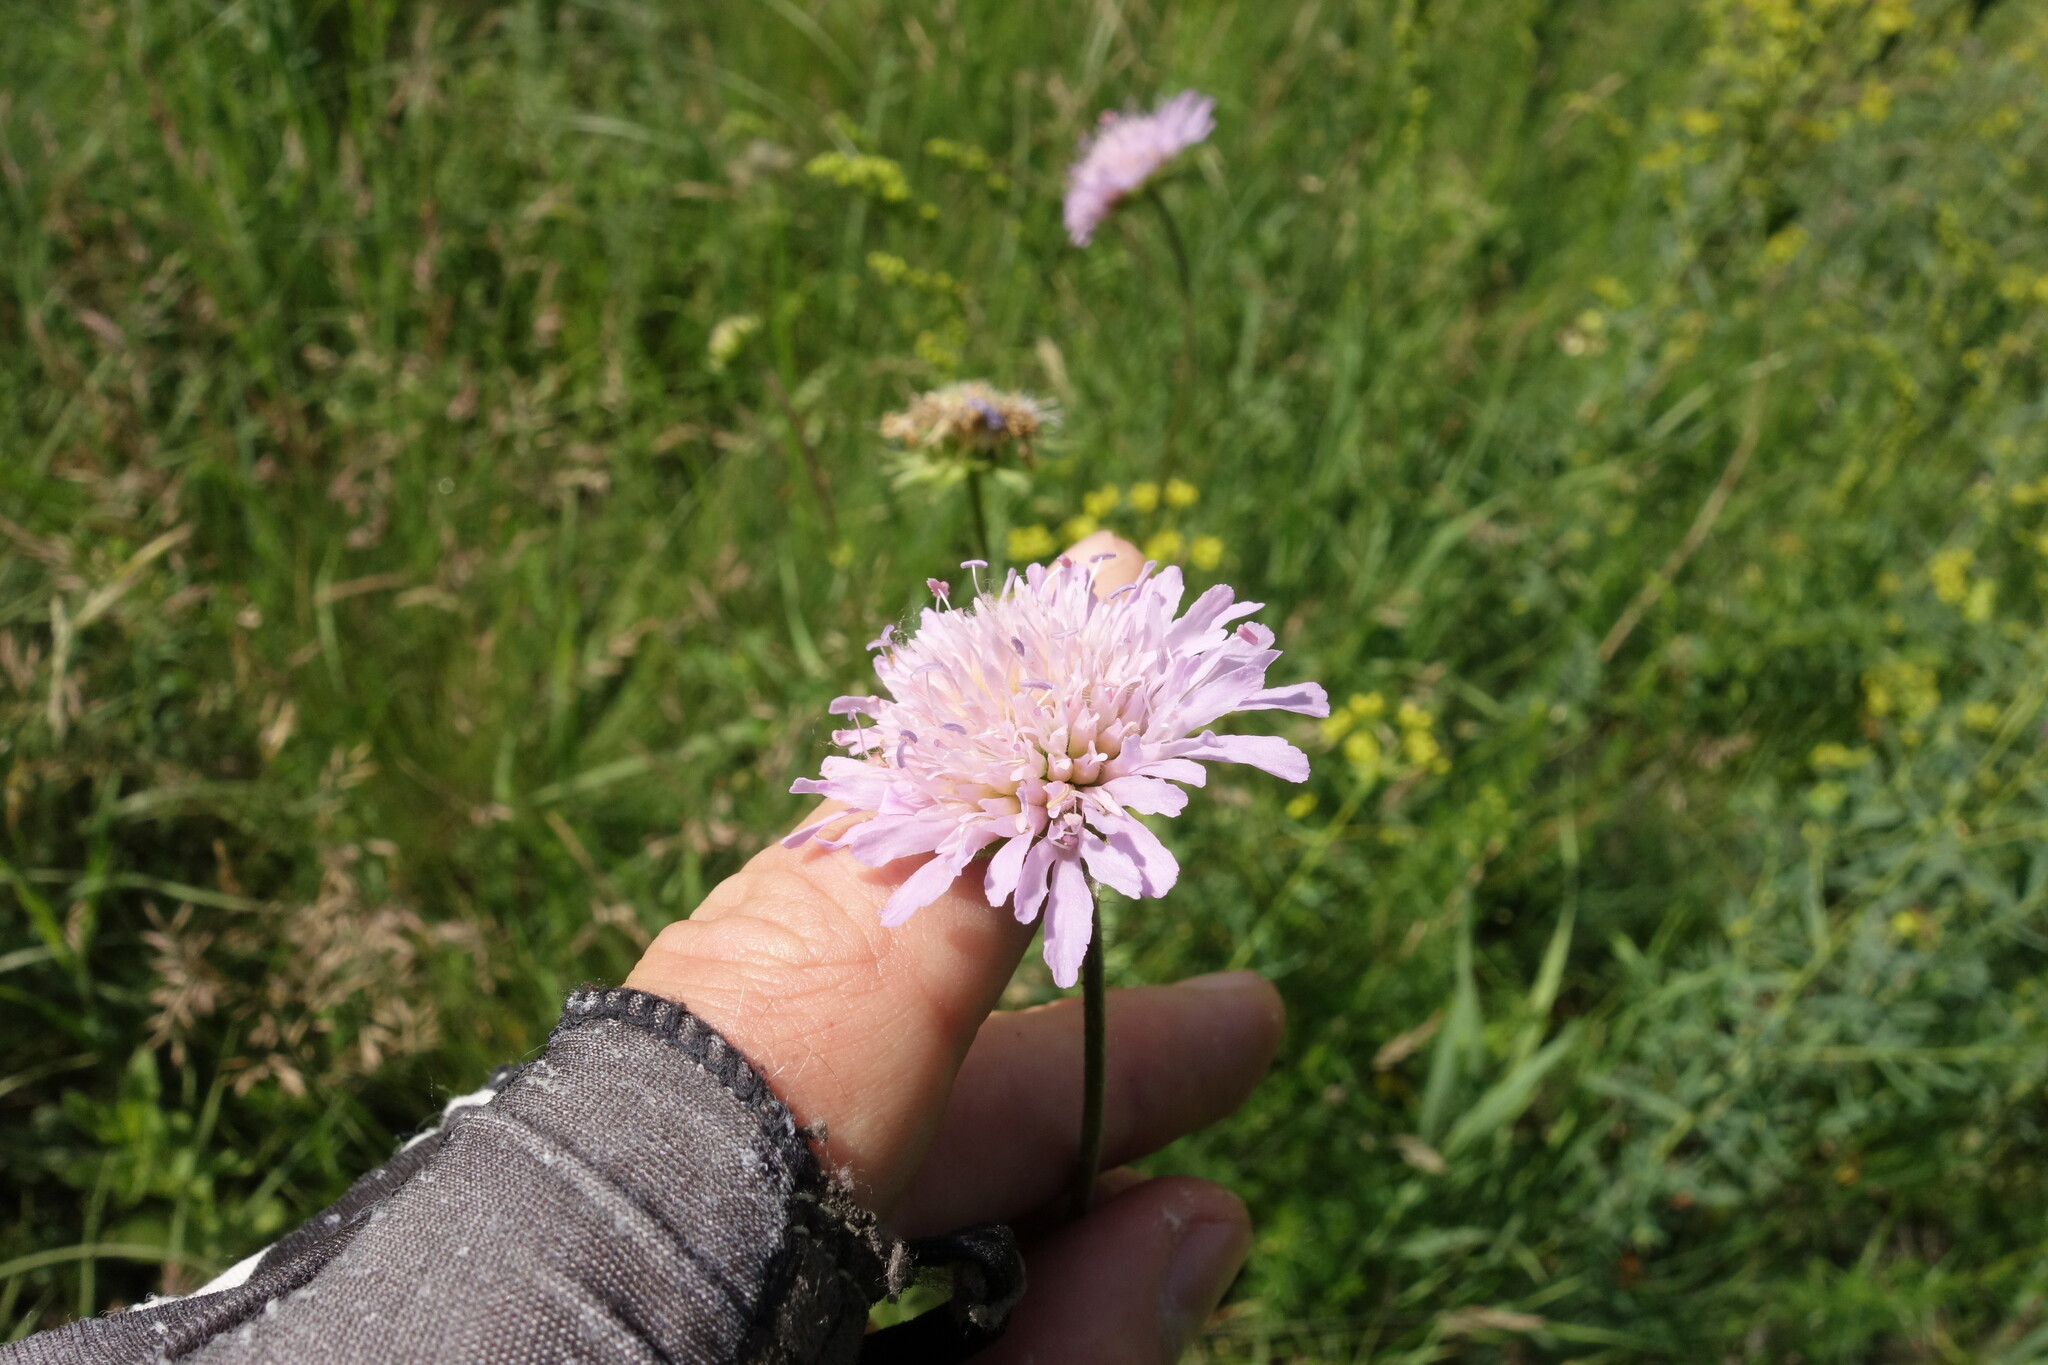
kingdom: Plantae
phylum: Tracheophyta
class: Magnoliopsida
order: Dipsacales
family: Caprifoliaceae
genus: Knautia
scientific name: Knautia arvensis
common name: Field scabiosa
